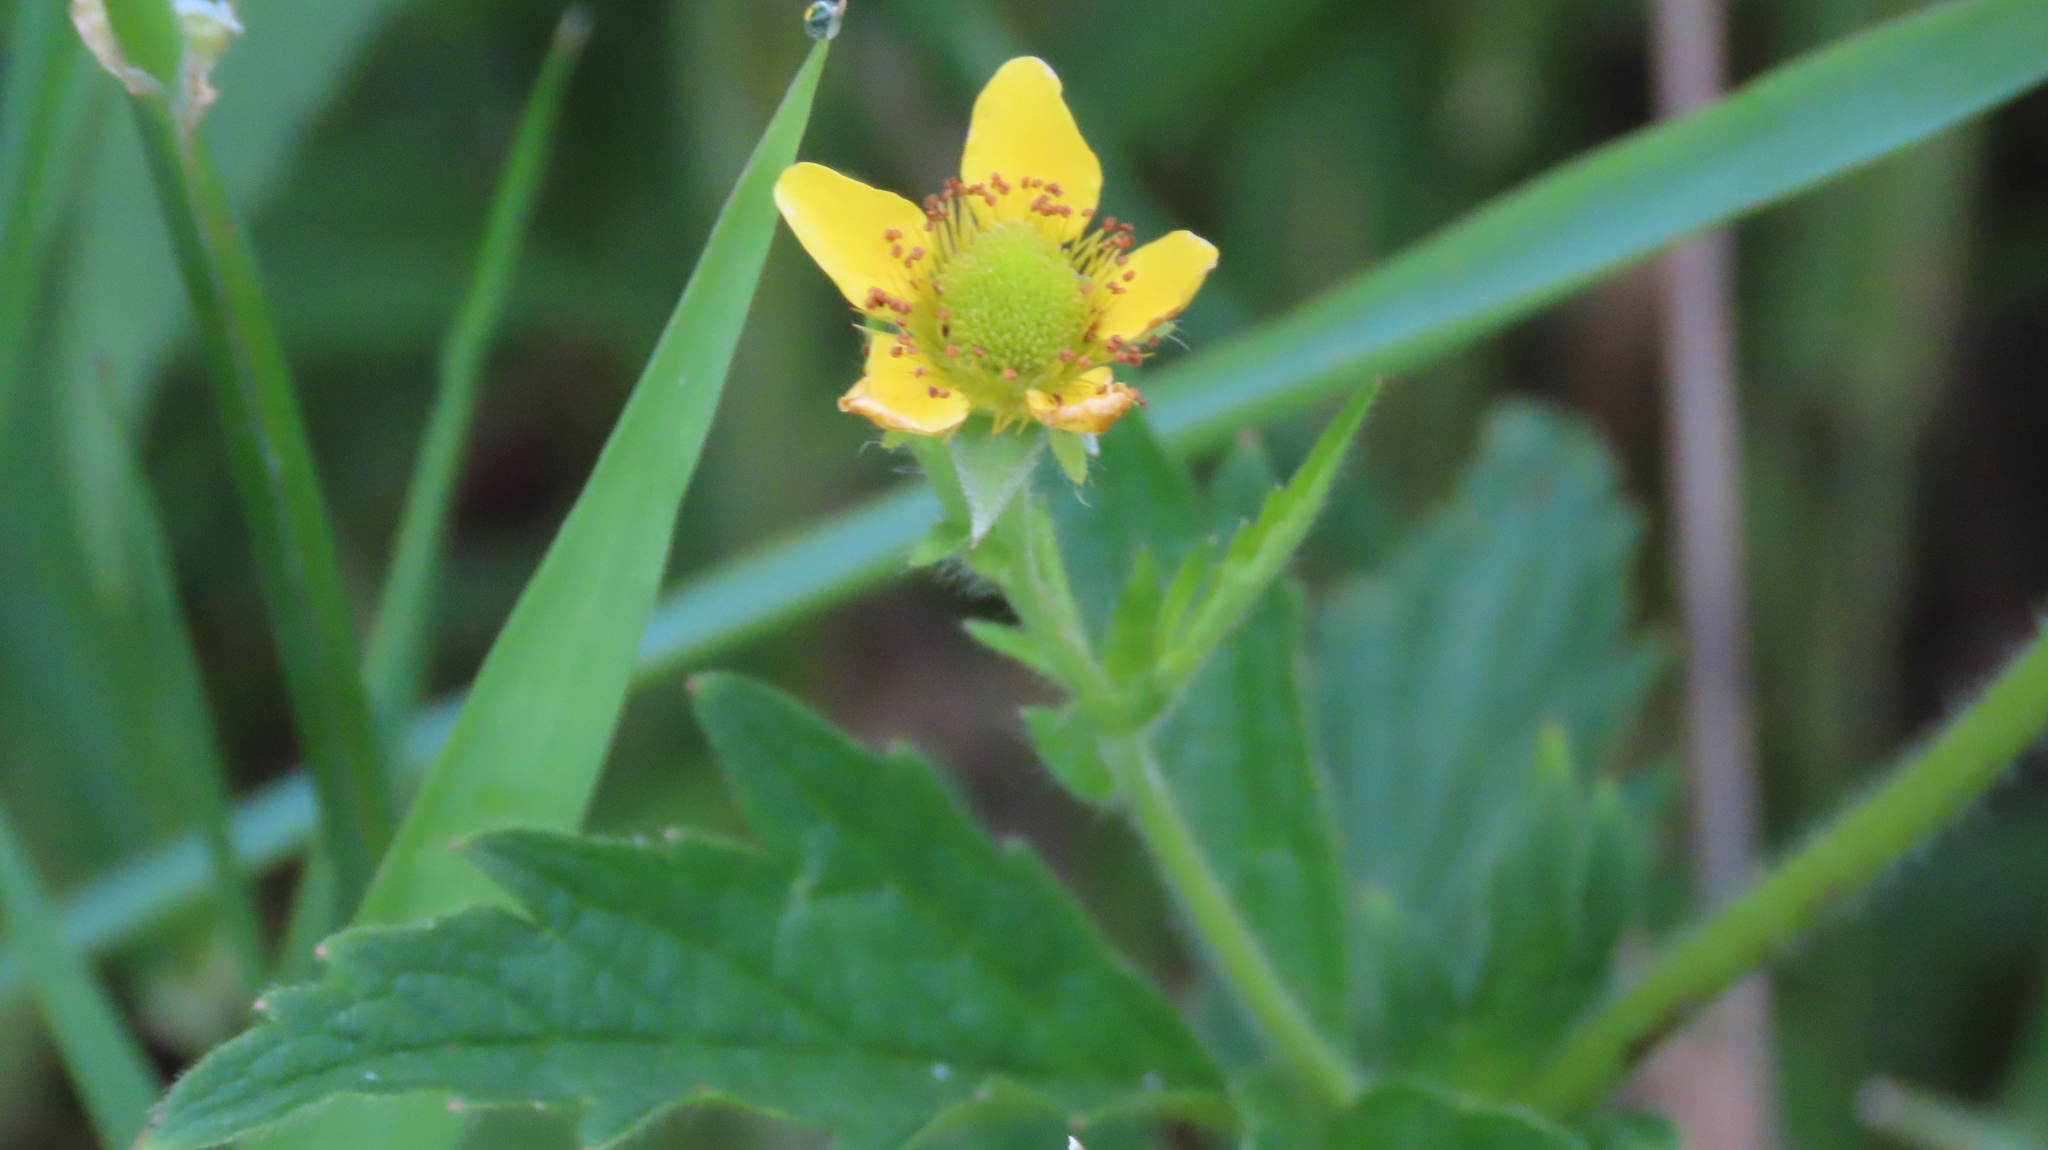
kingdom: Plantae
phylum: Tracheophyta
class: Magnoliopsida
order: Rosales
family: Rosaceae
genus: Geum
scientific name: Geum aleppicum
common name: Yellow avens
